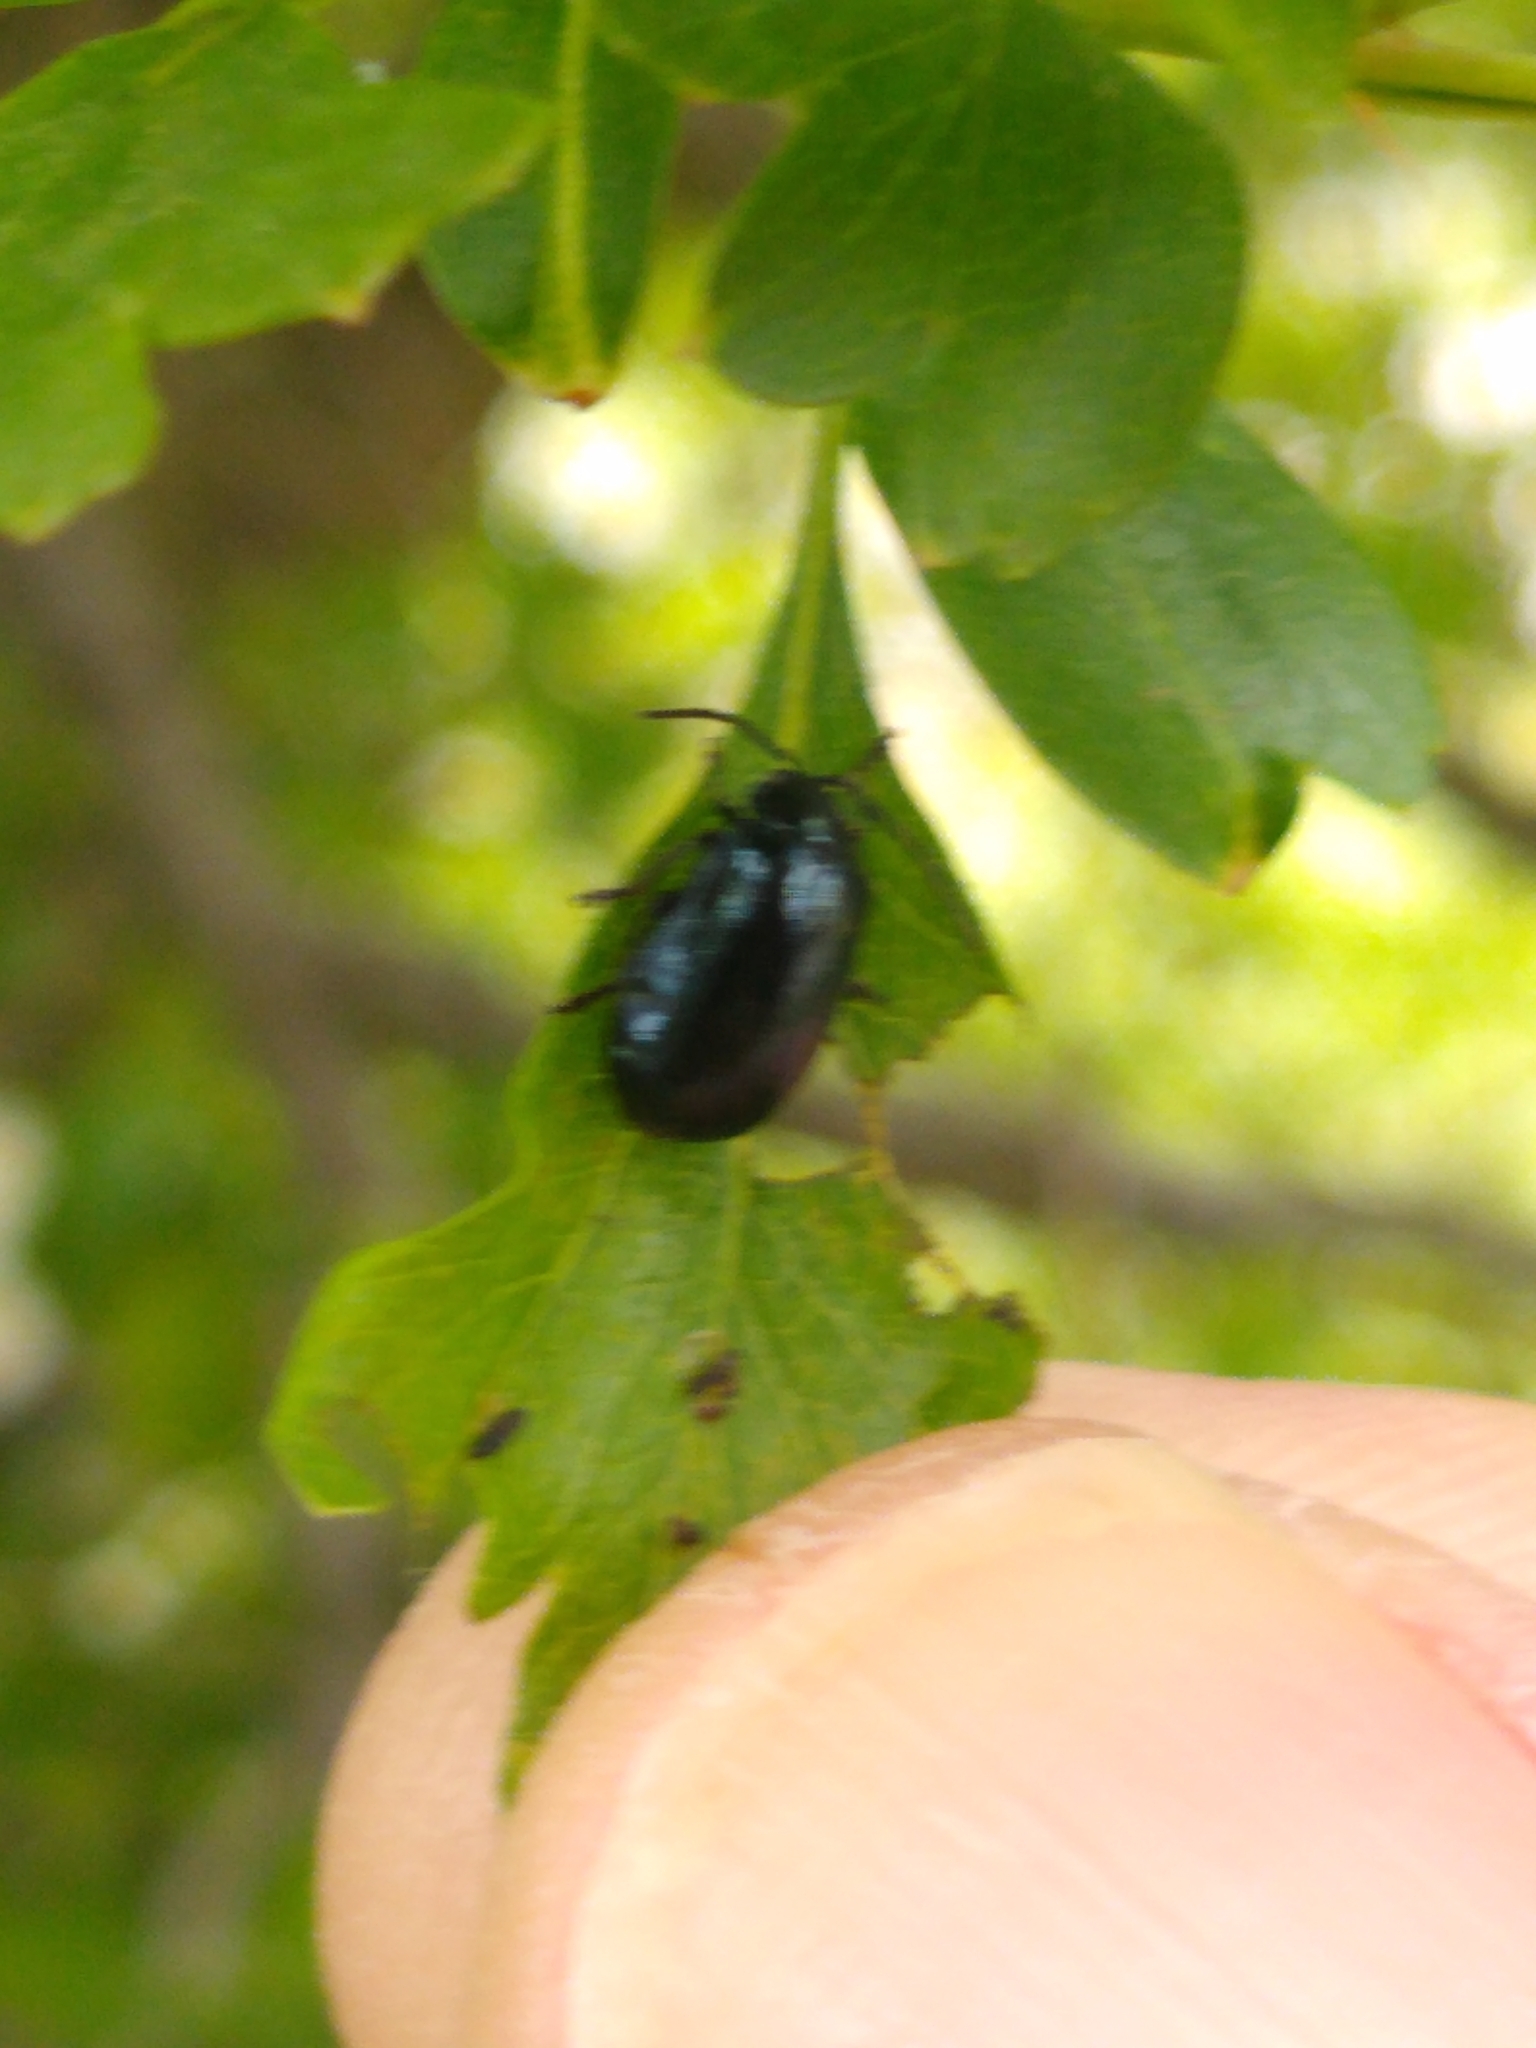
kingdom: Animalia
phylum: Arthropoda
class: Insecta
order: Coleoptera
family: Chrysomelidae
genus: Agelastica
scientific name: Agelastica alni
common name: Alder leaf beetle
